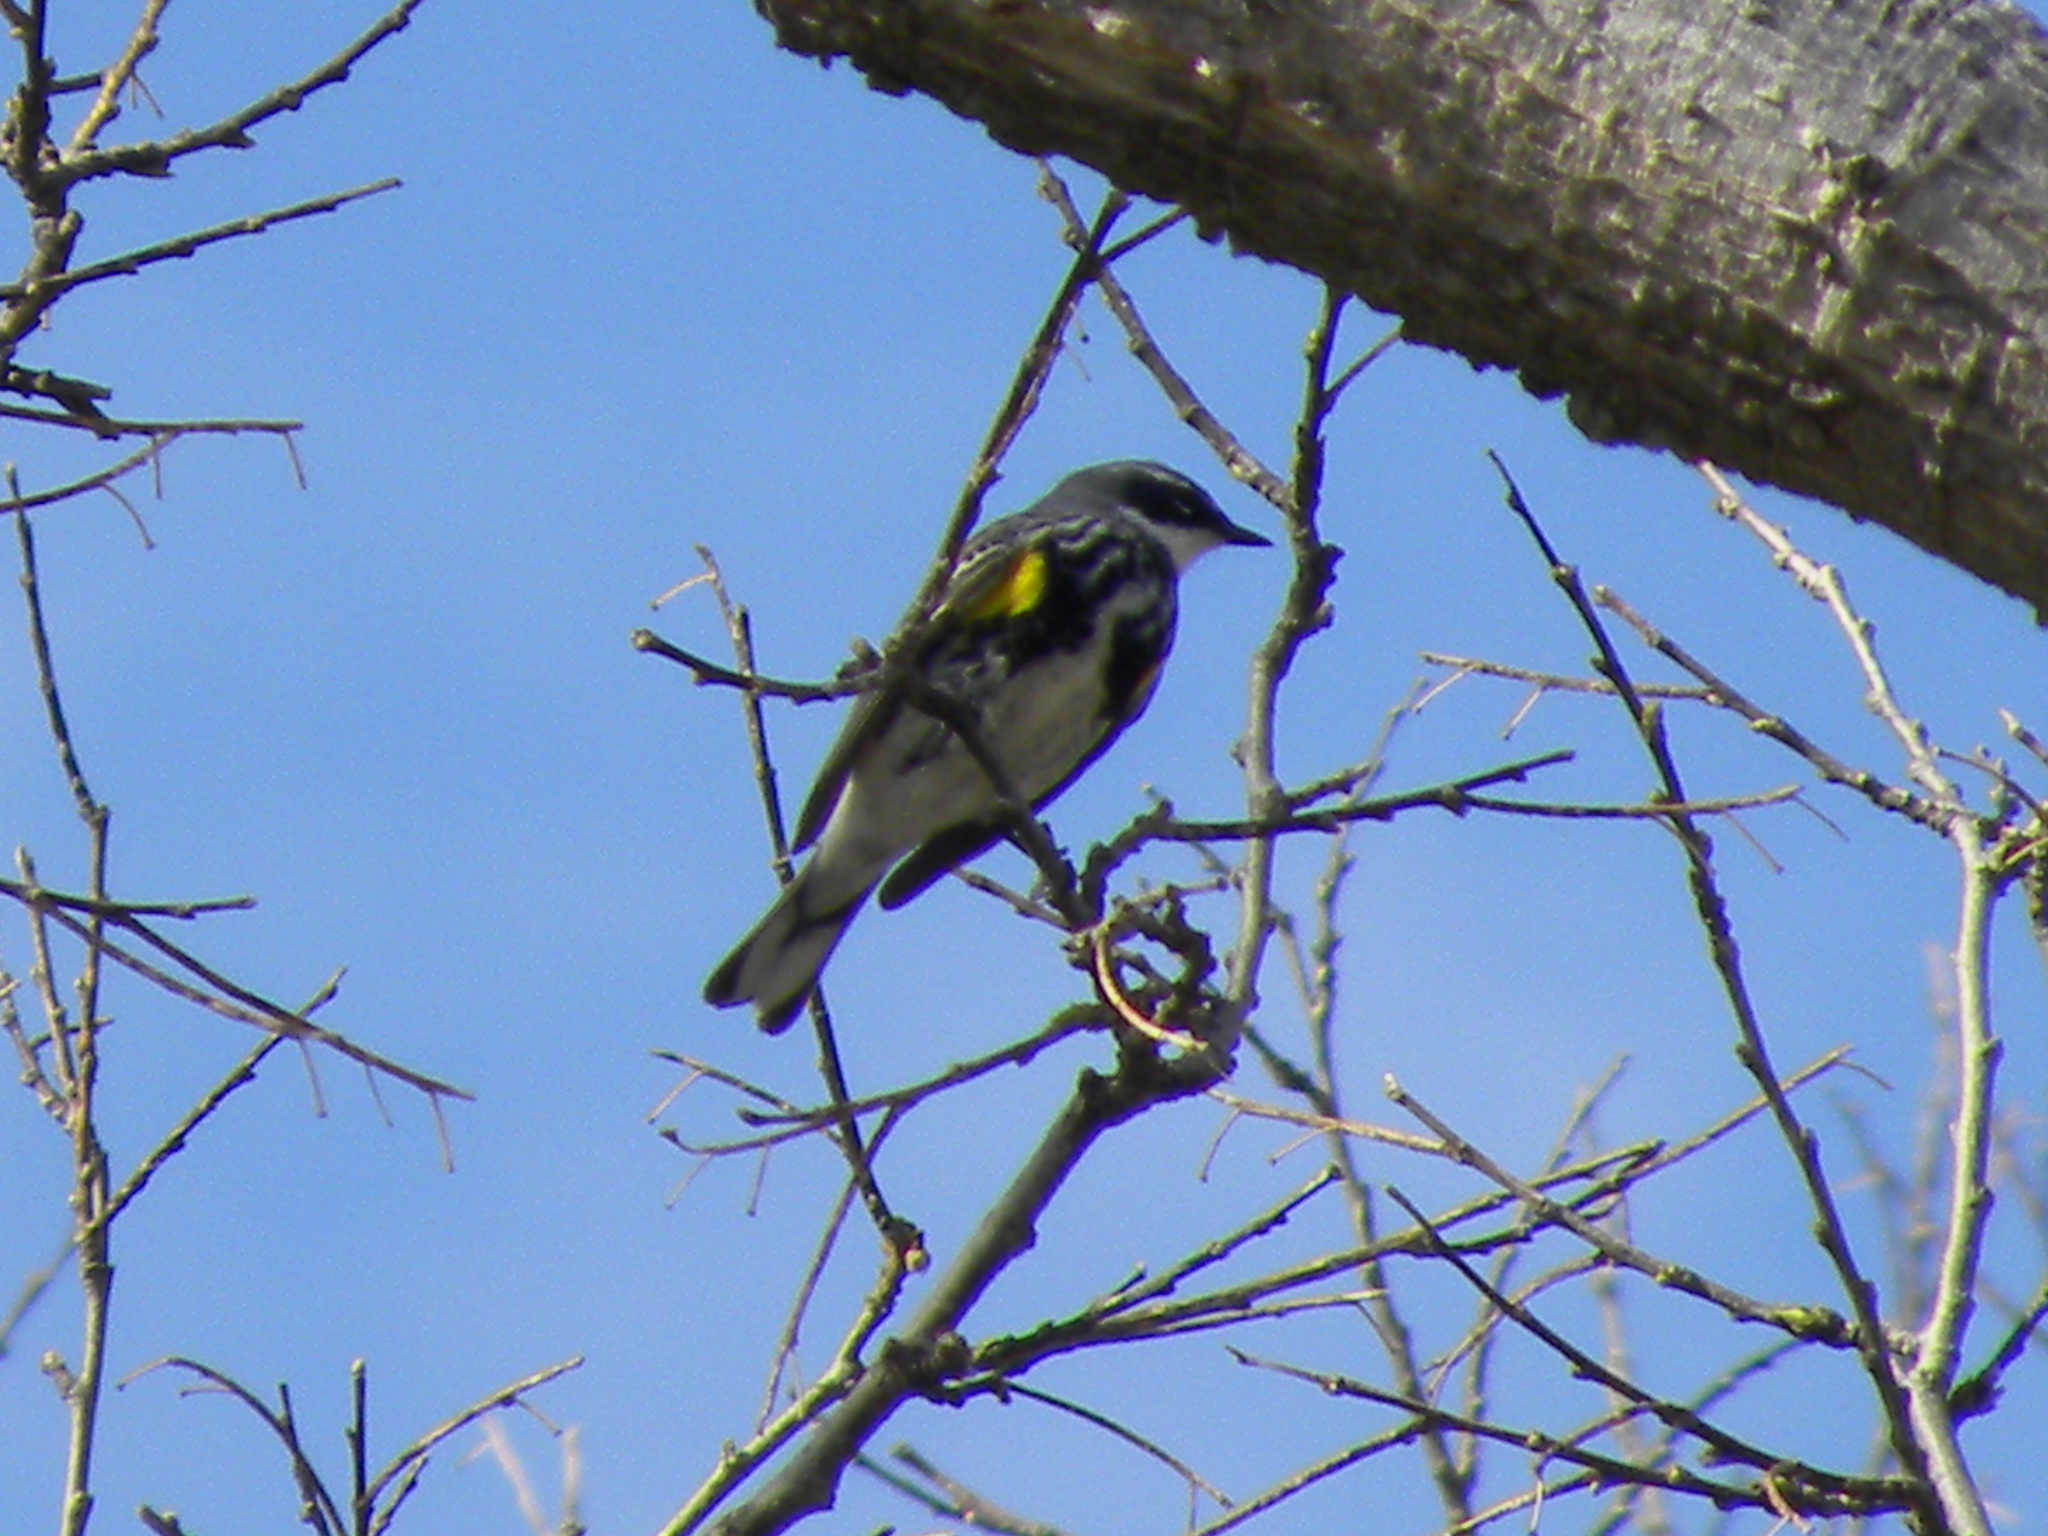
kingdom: Animalia
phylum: Chordata
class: Aves
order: Passeriformes
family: Parulidae
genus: Setophaga
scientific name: Setophaga coronata
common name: Myrtle warbler
